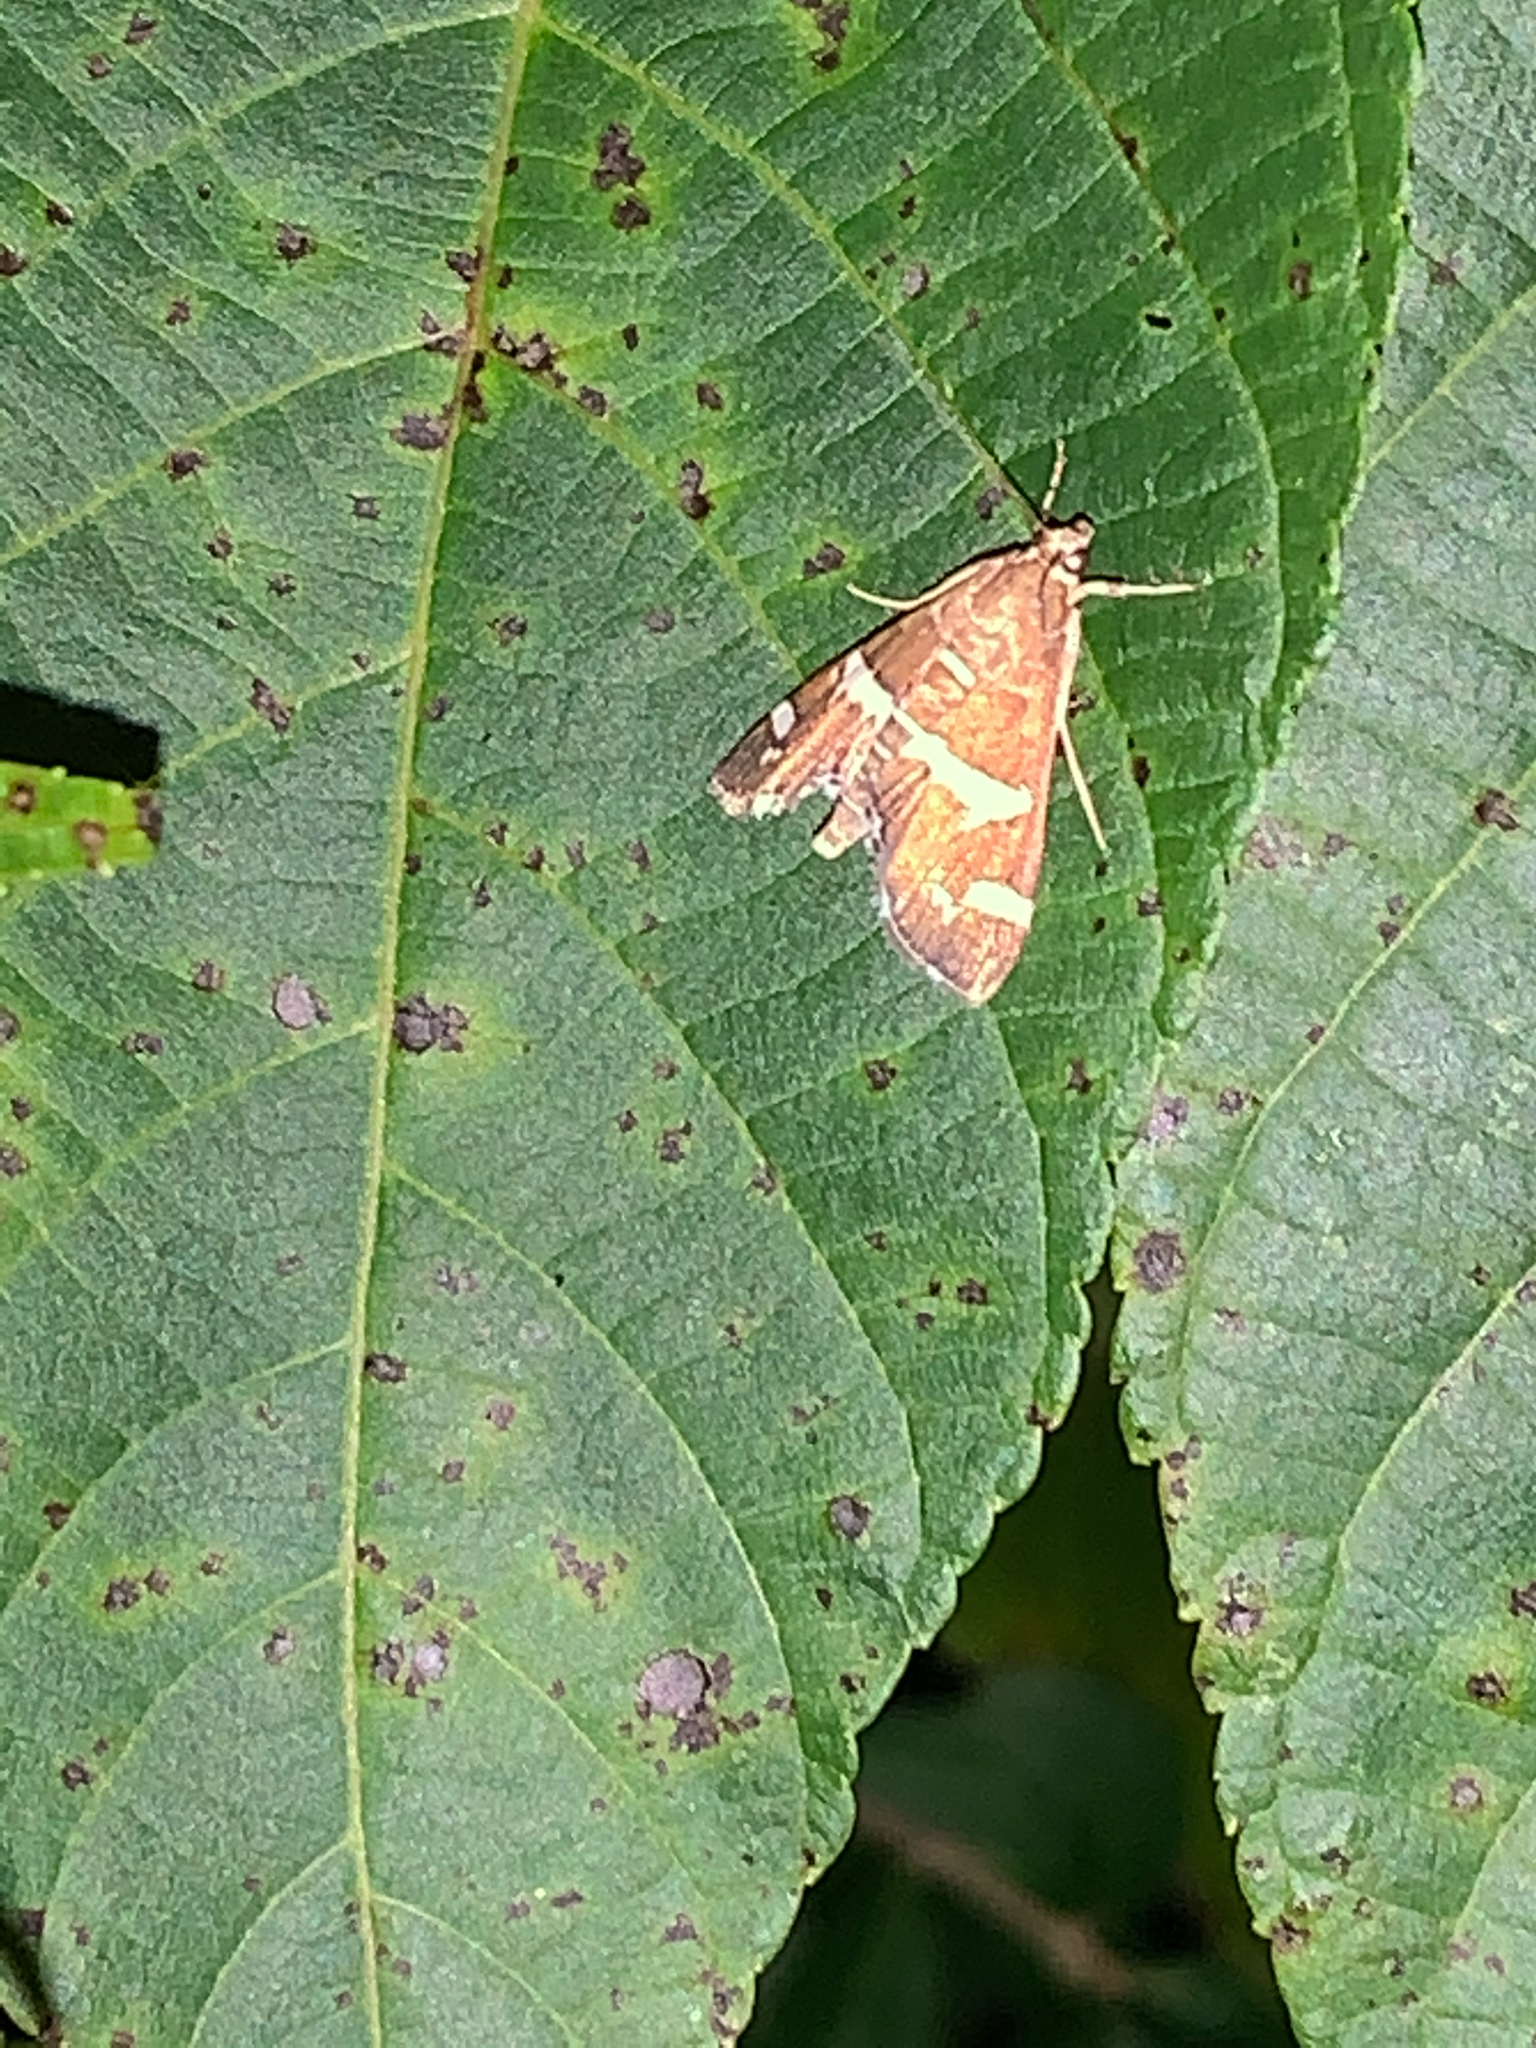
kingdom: Animalia
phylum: Arthropoda
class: Insecta
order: Lepidoptera
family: Crambidae
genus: Spoladea
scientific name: Spoladea recurvalis
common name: Beet webworm moth
